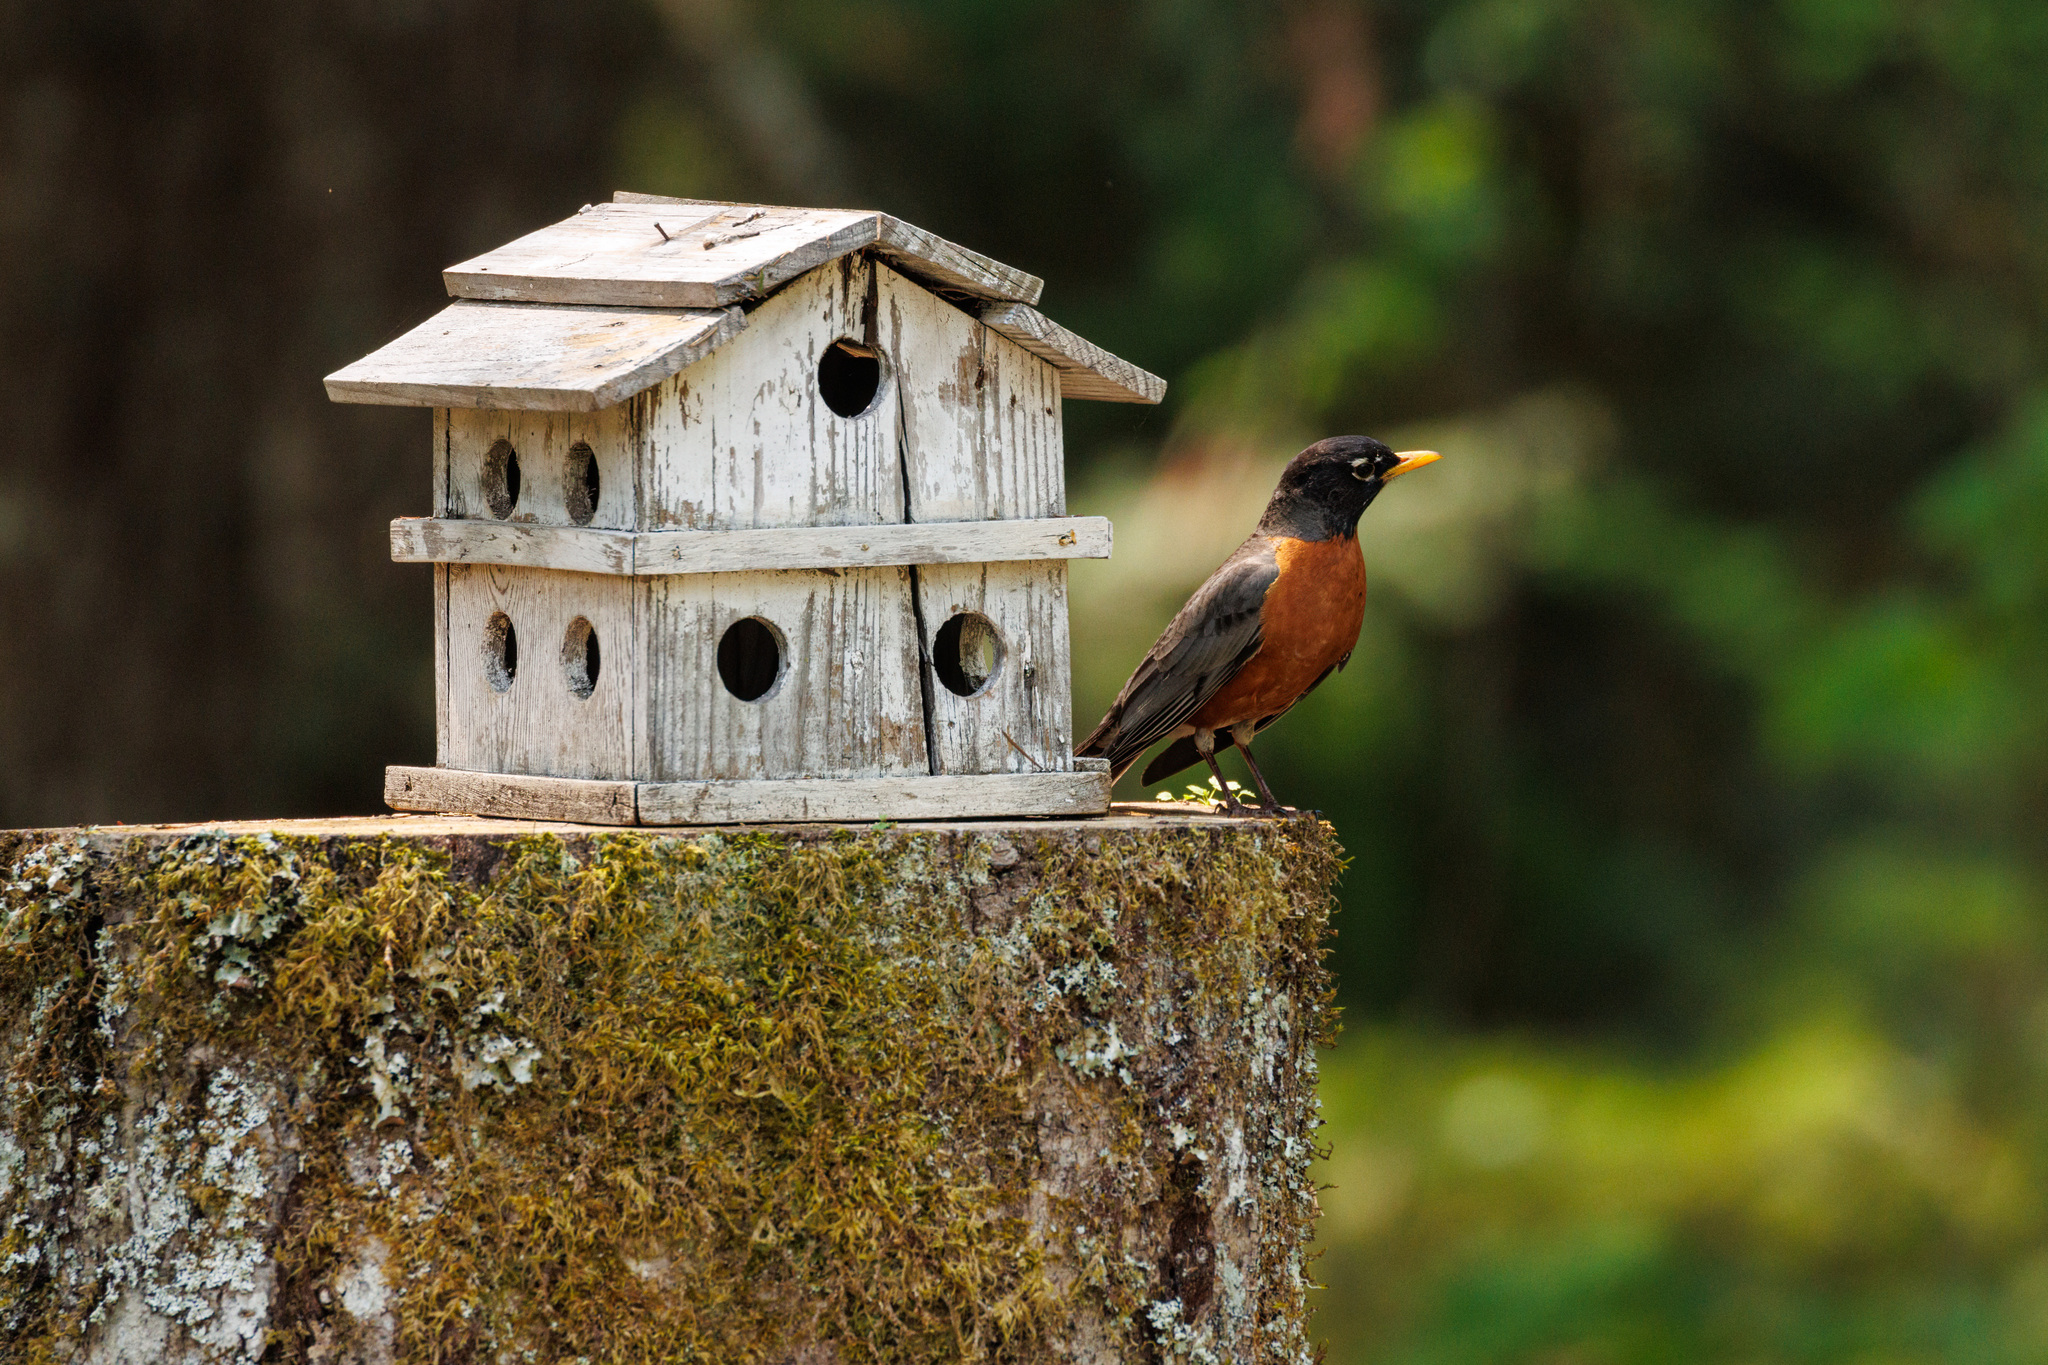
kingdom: Animalia
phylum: Chordata
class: Aves
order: Passeriformes
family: Turdidae
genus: Turdus
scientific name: Turdus migratorius
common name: American robin
